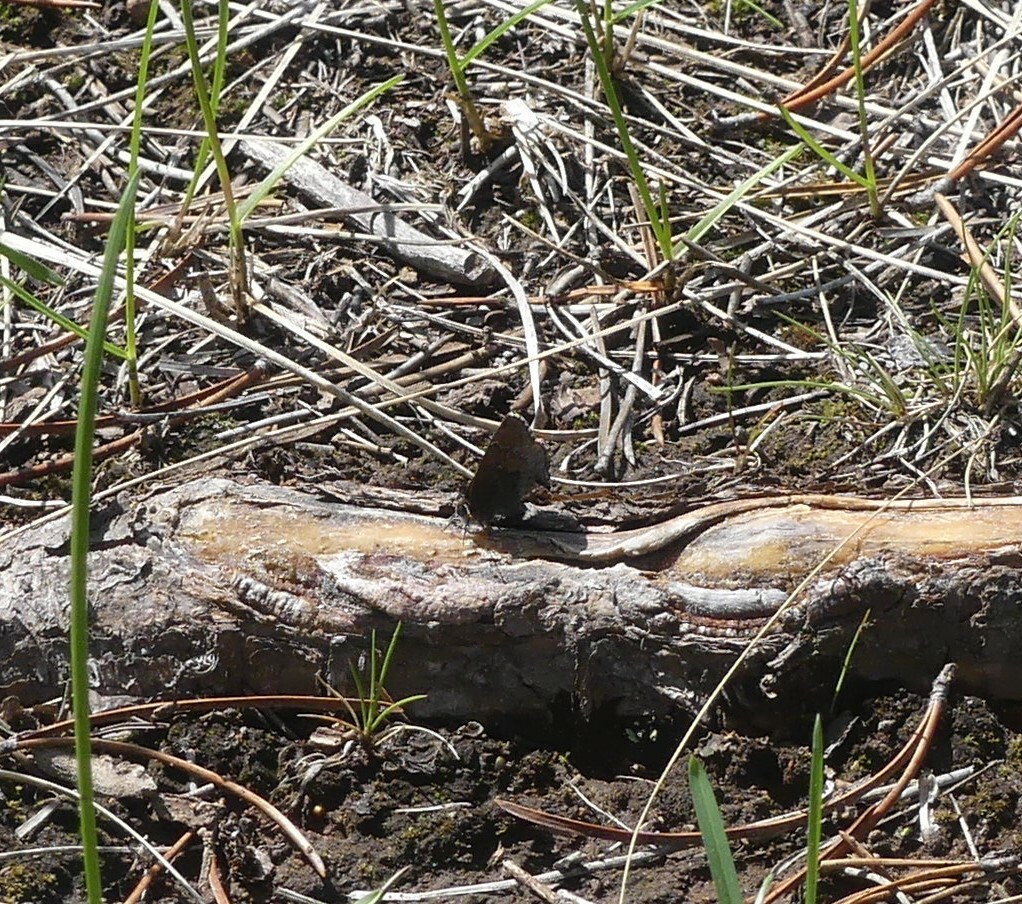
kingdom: Animalia
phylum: Arthropoda
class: Insecta
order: Lepidoptera
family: Lycaenidae
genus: Callophrys
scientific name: Callophrys polios
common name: Hoary elfin
